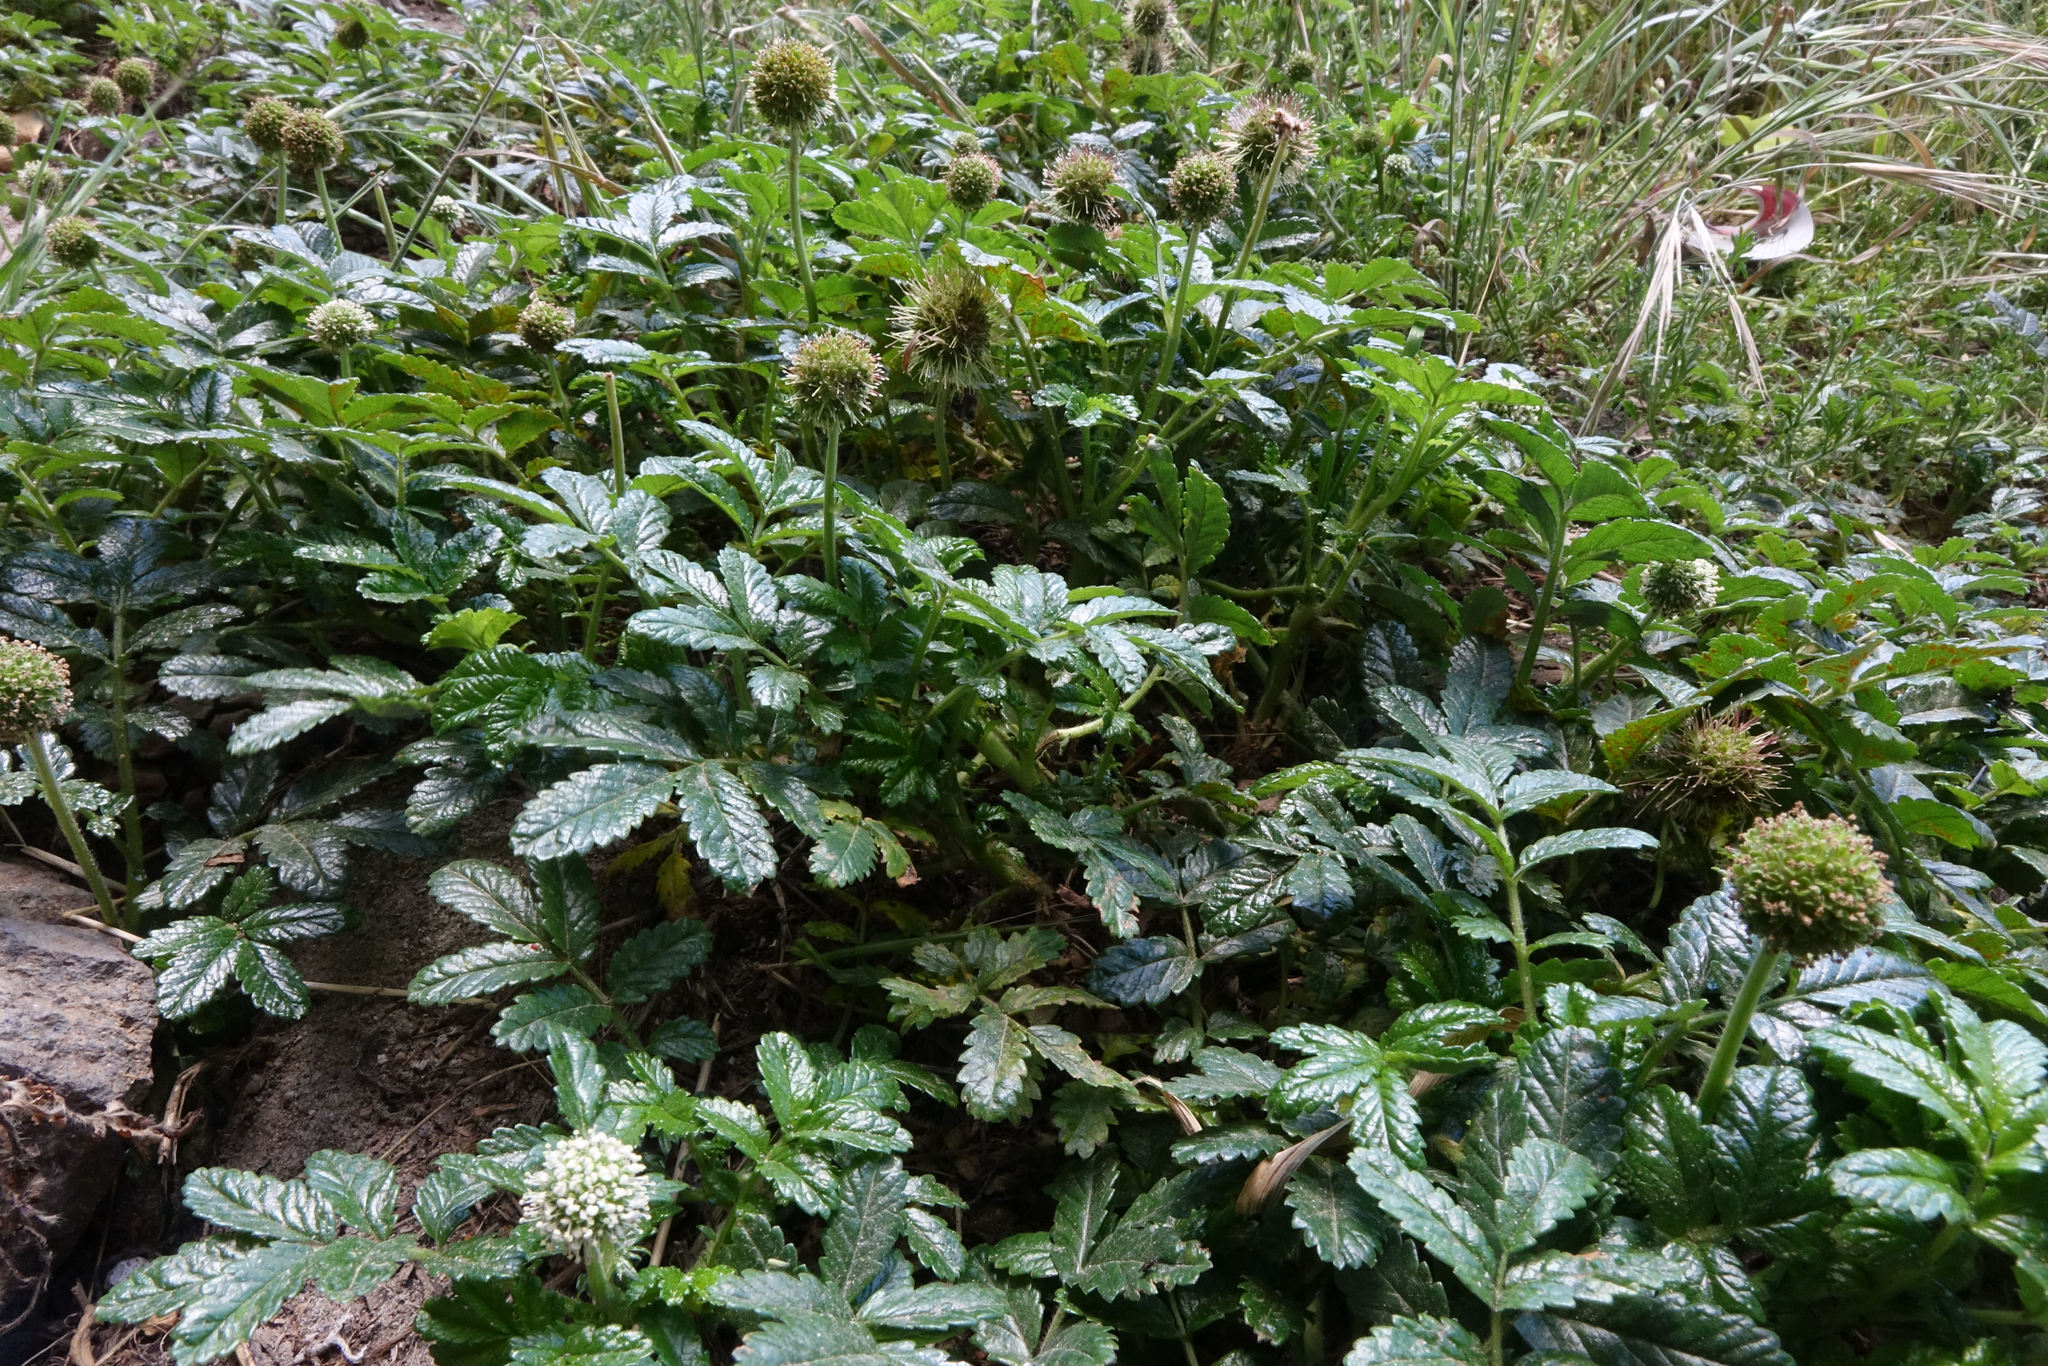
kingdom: Plantae
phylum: Tracheophyta
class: Magnoliopsida
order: Rosales
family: Rosaceae
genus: Acaena
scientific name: Acaena pallida
